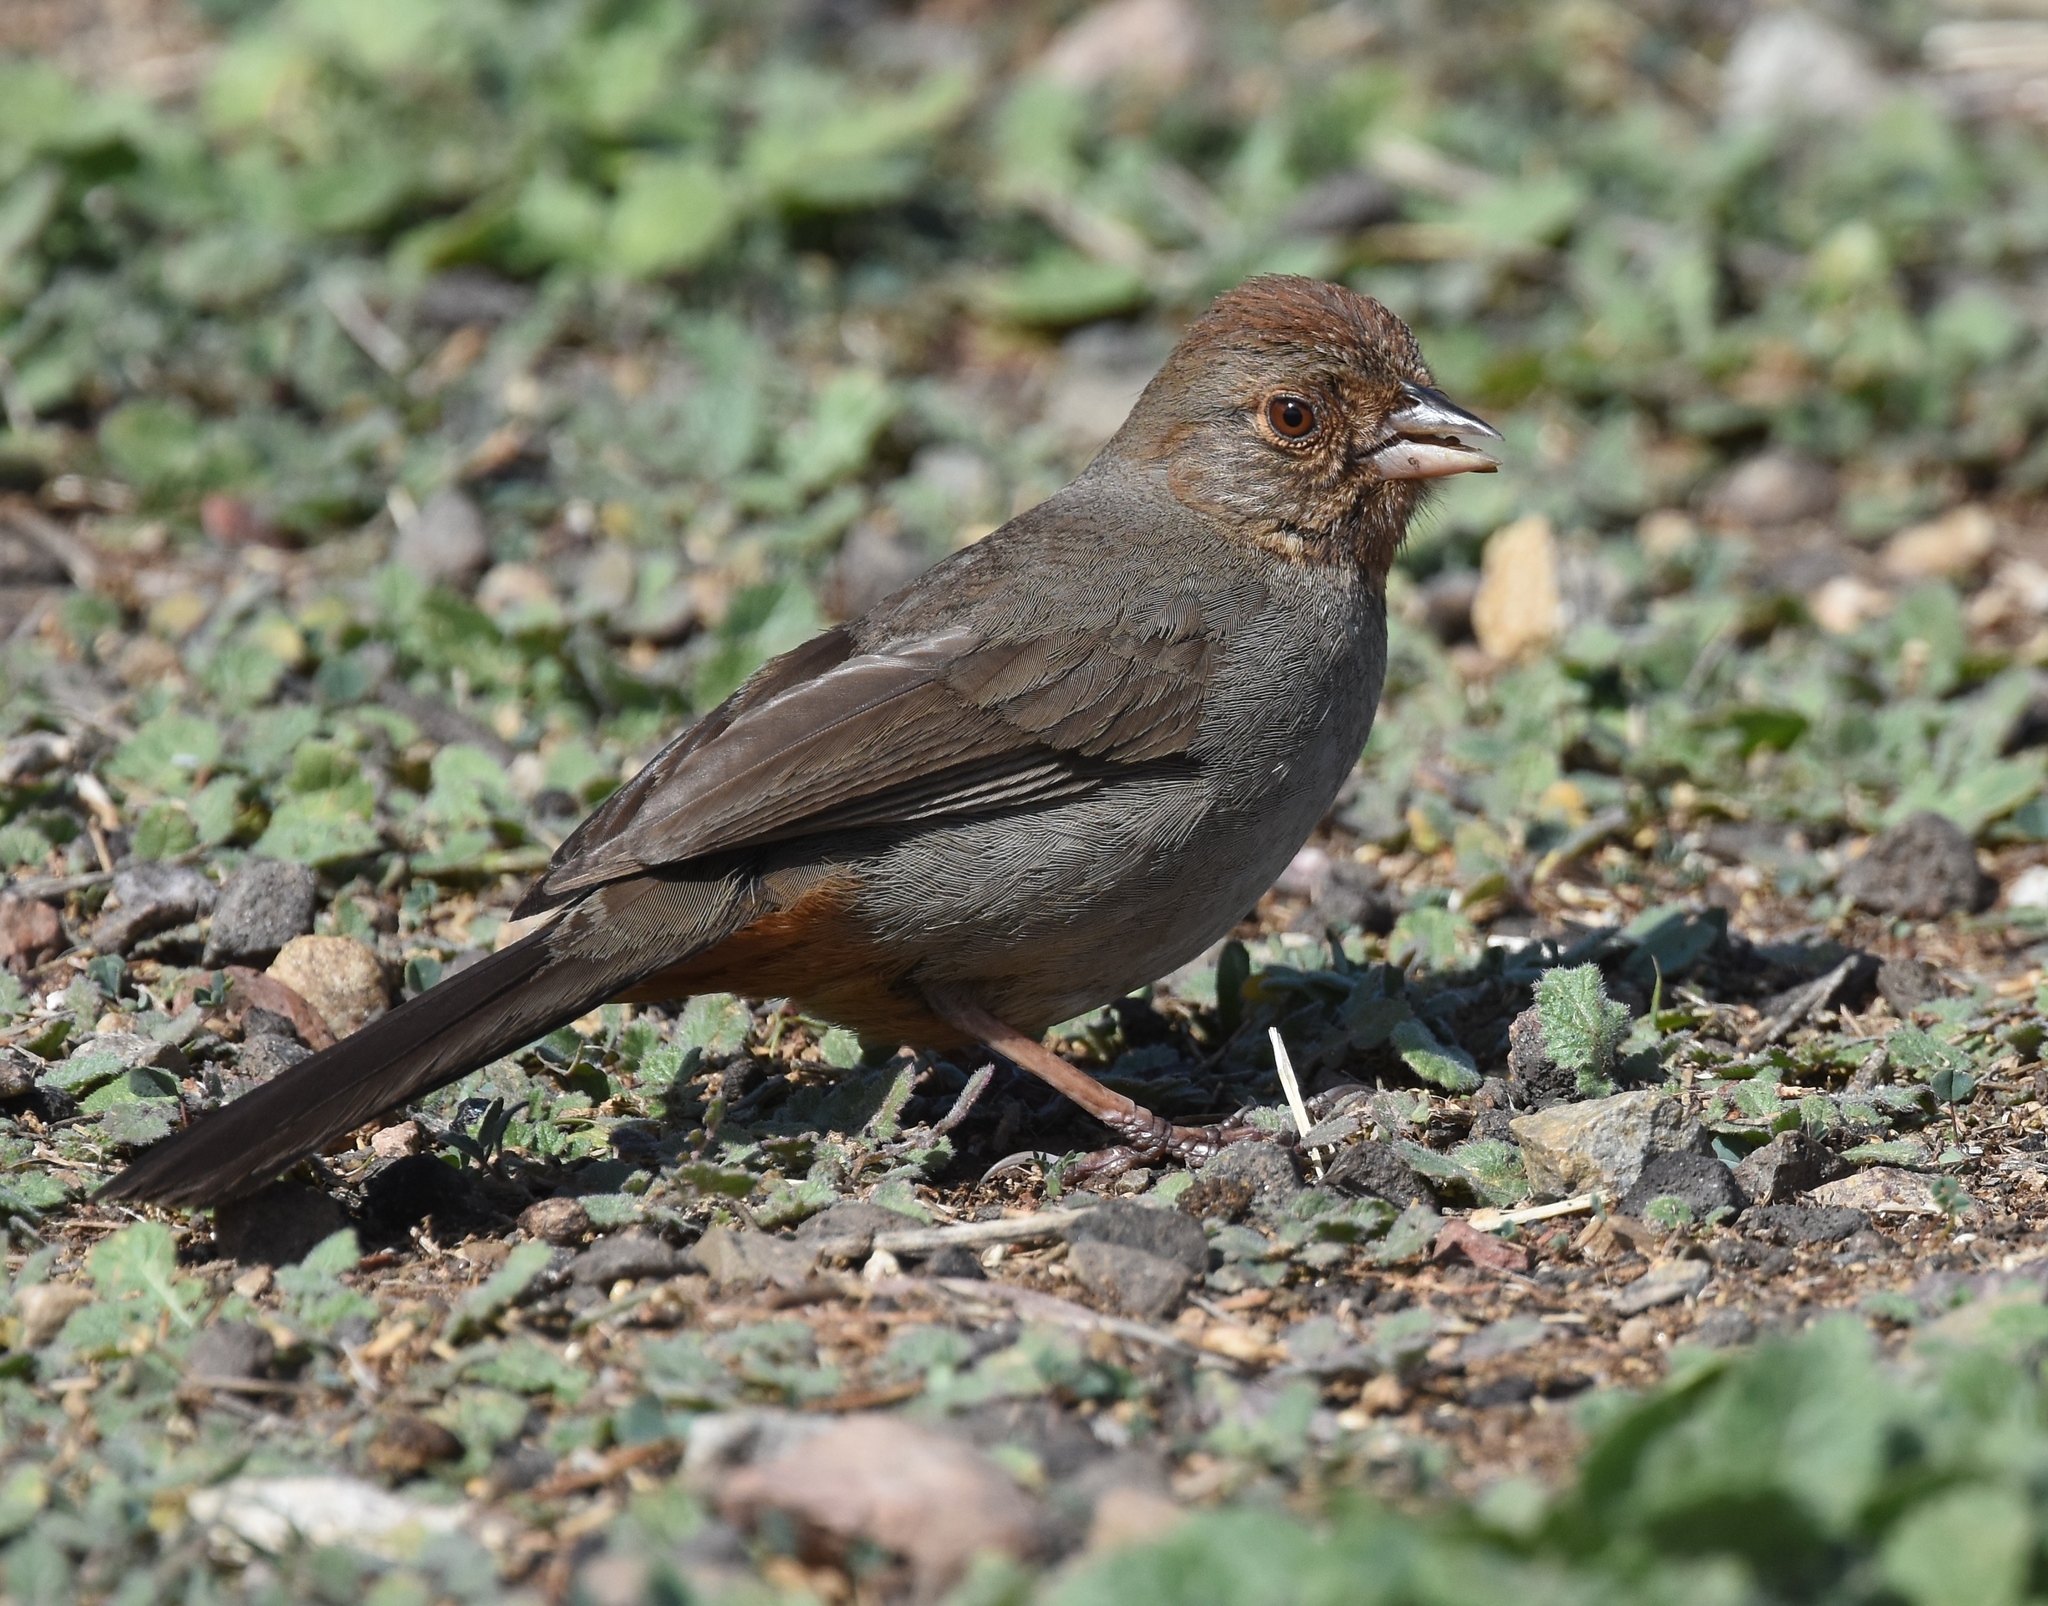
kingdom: Animalia
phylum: Chordata
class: Aves
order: Passeriformes
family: Passerellidae
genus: Melozone
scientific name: Melozone crissalis
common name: California towhee
